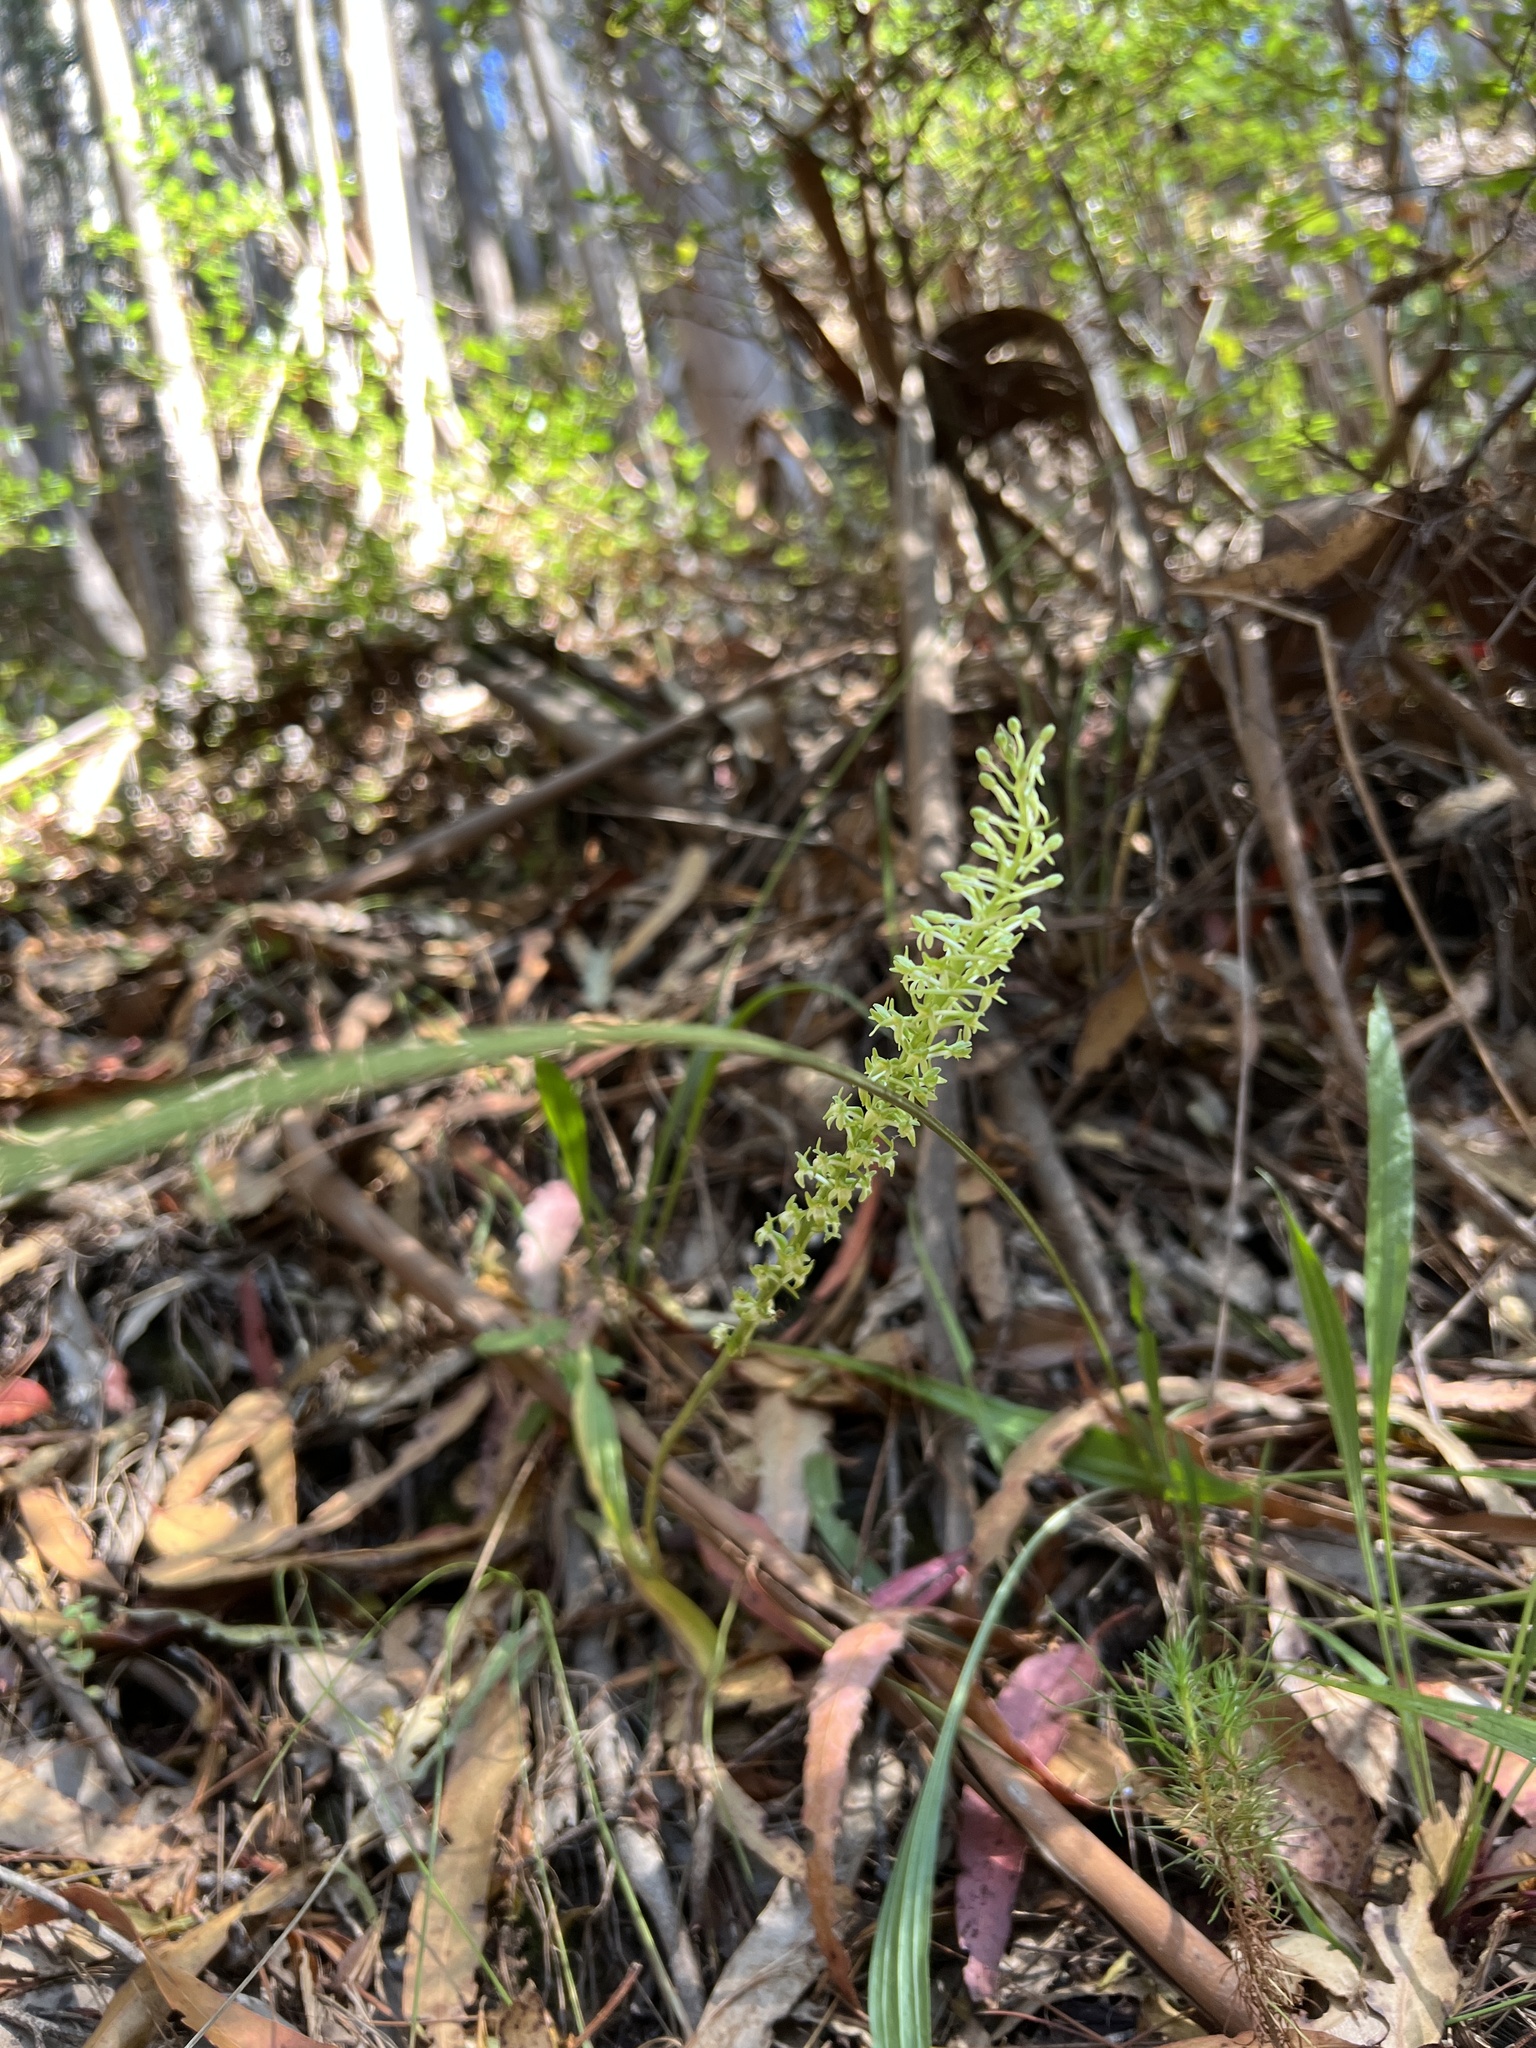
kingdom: Plantae
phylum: Tracheophyta
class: Liliopsida
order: Asparagales
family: Orchidaceae
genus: Platanthera
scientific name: Platanthera elongata
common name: Dense-flowered rein orchid
